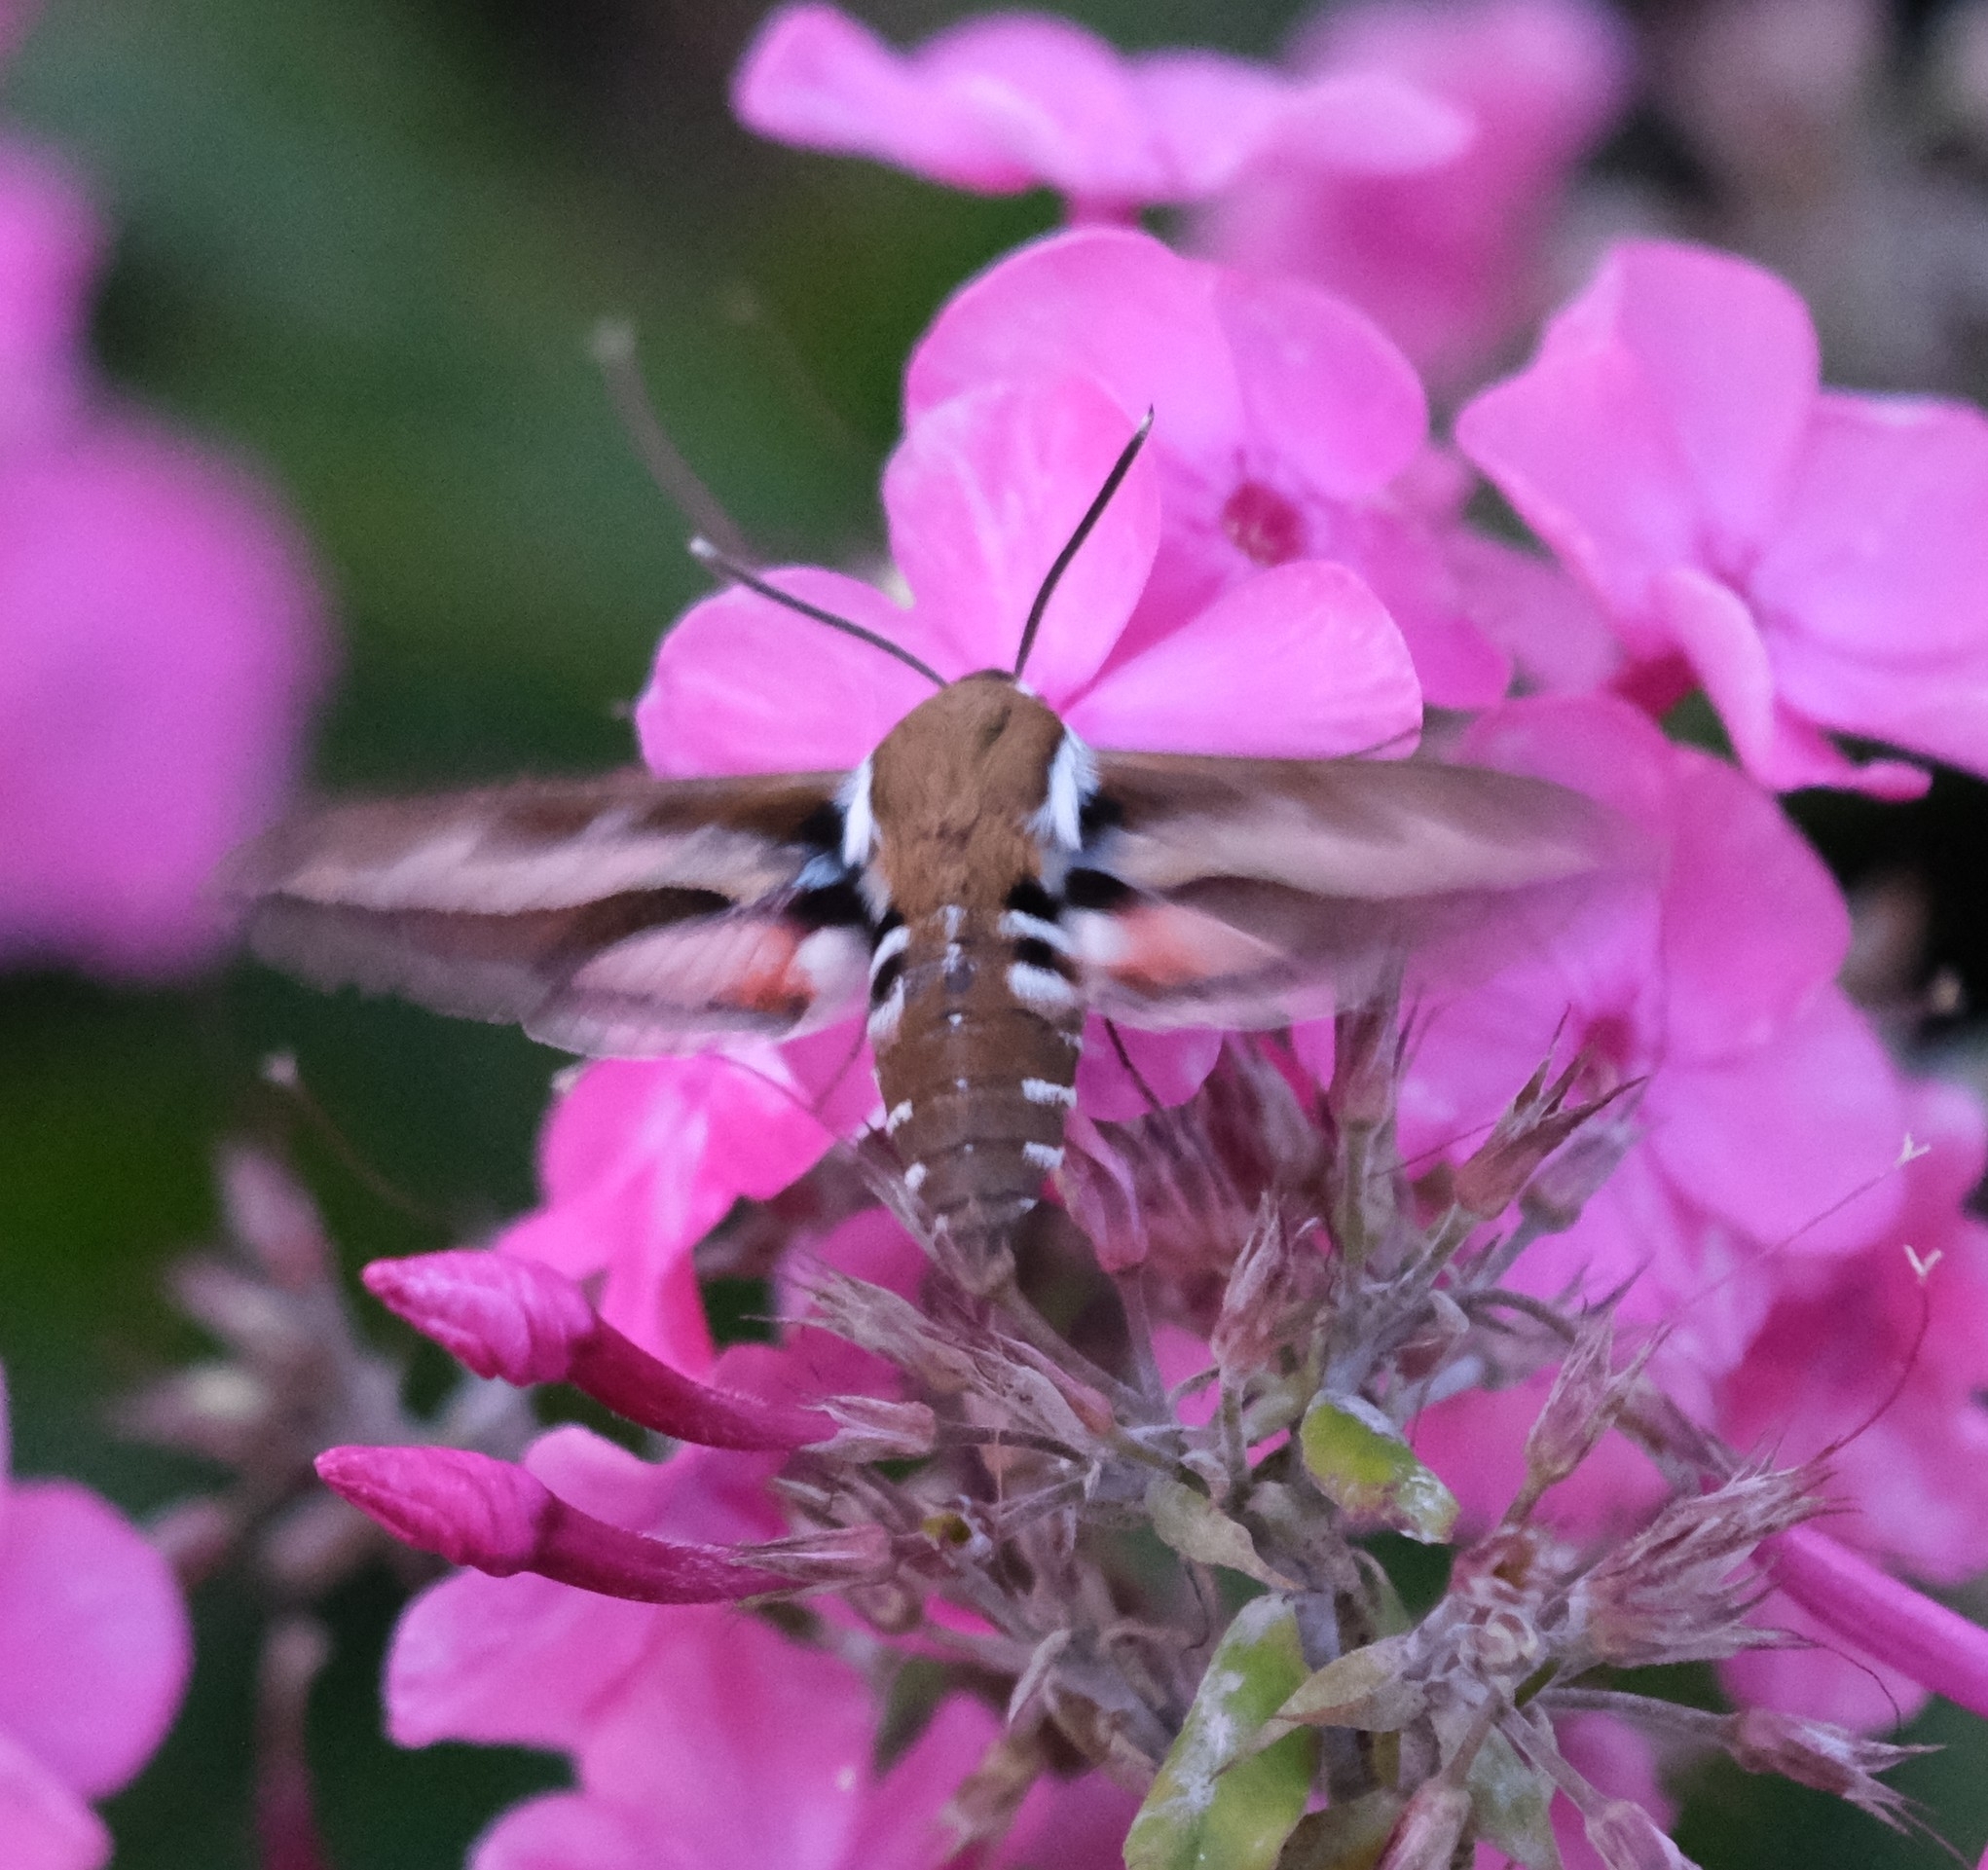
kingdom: Animalia
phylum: Arthropoda
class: Insecta
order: Lepidoptera
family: Sphingidae
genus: Hyles
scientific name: Hyles gallii
